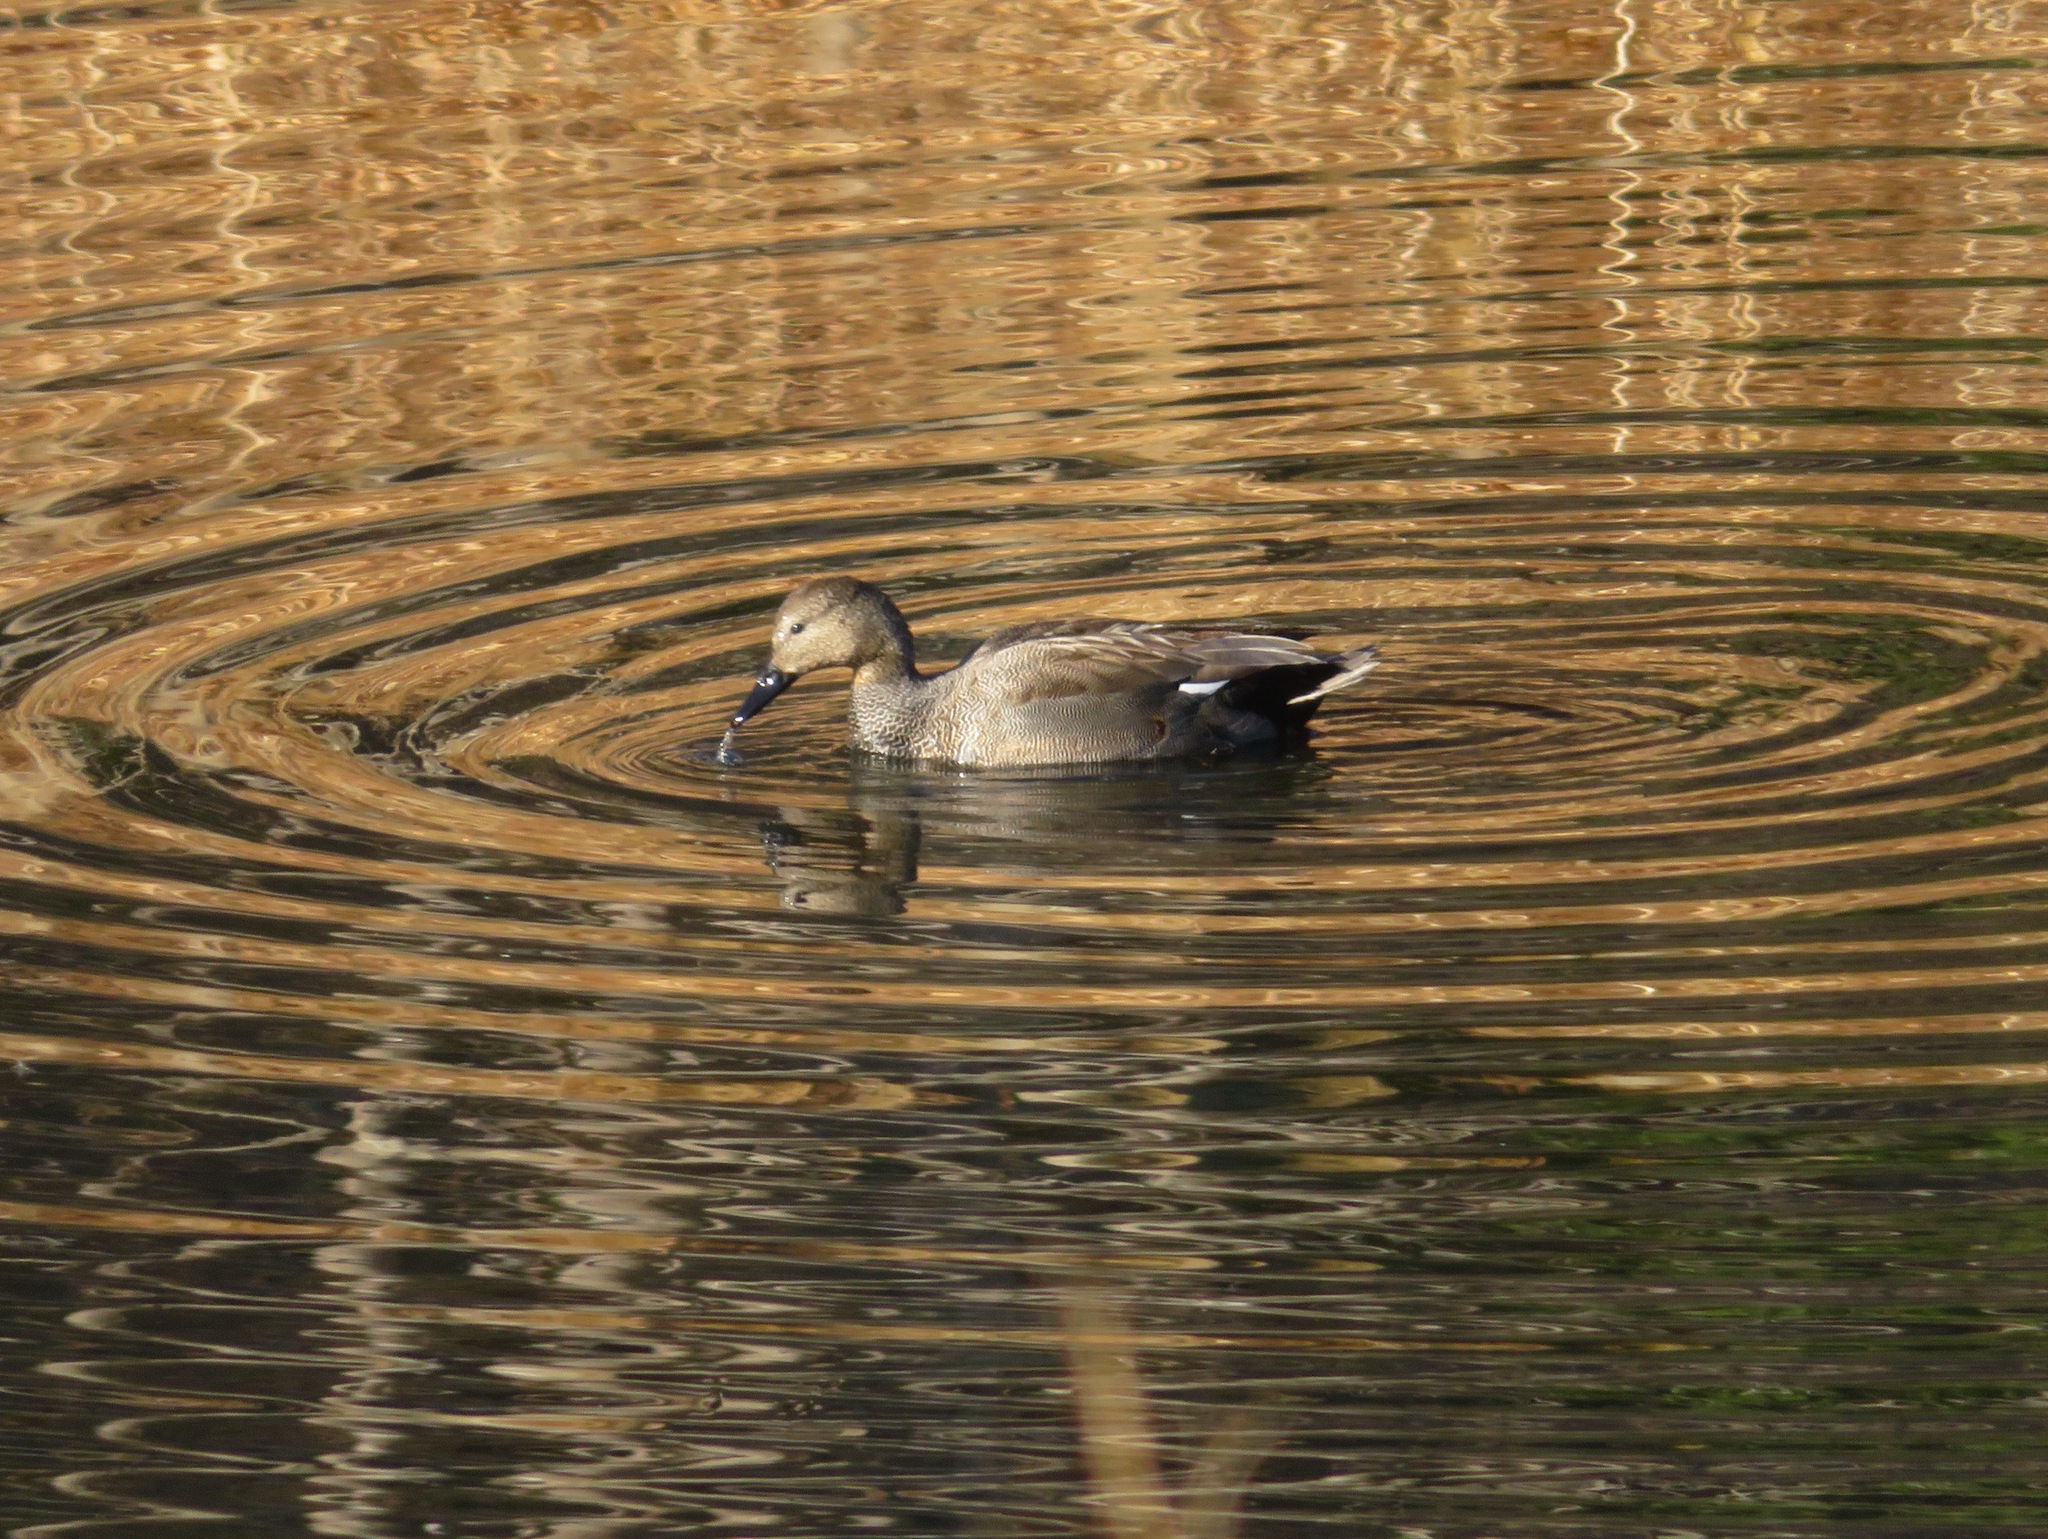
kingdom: Animalia
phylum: Chordata
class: Aves
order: Anseriformes
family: Anatidae
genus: Mareca
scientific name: Mareca strepera
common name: Gadwall
